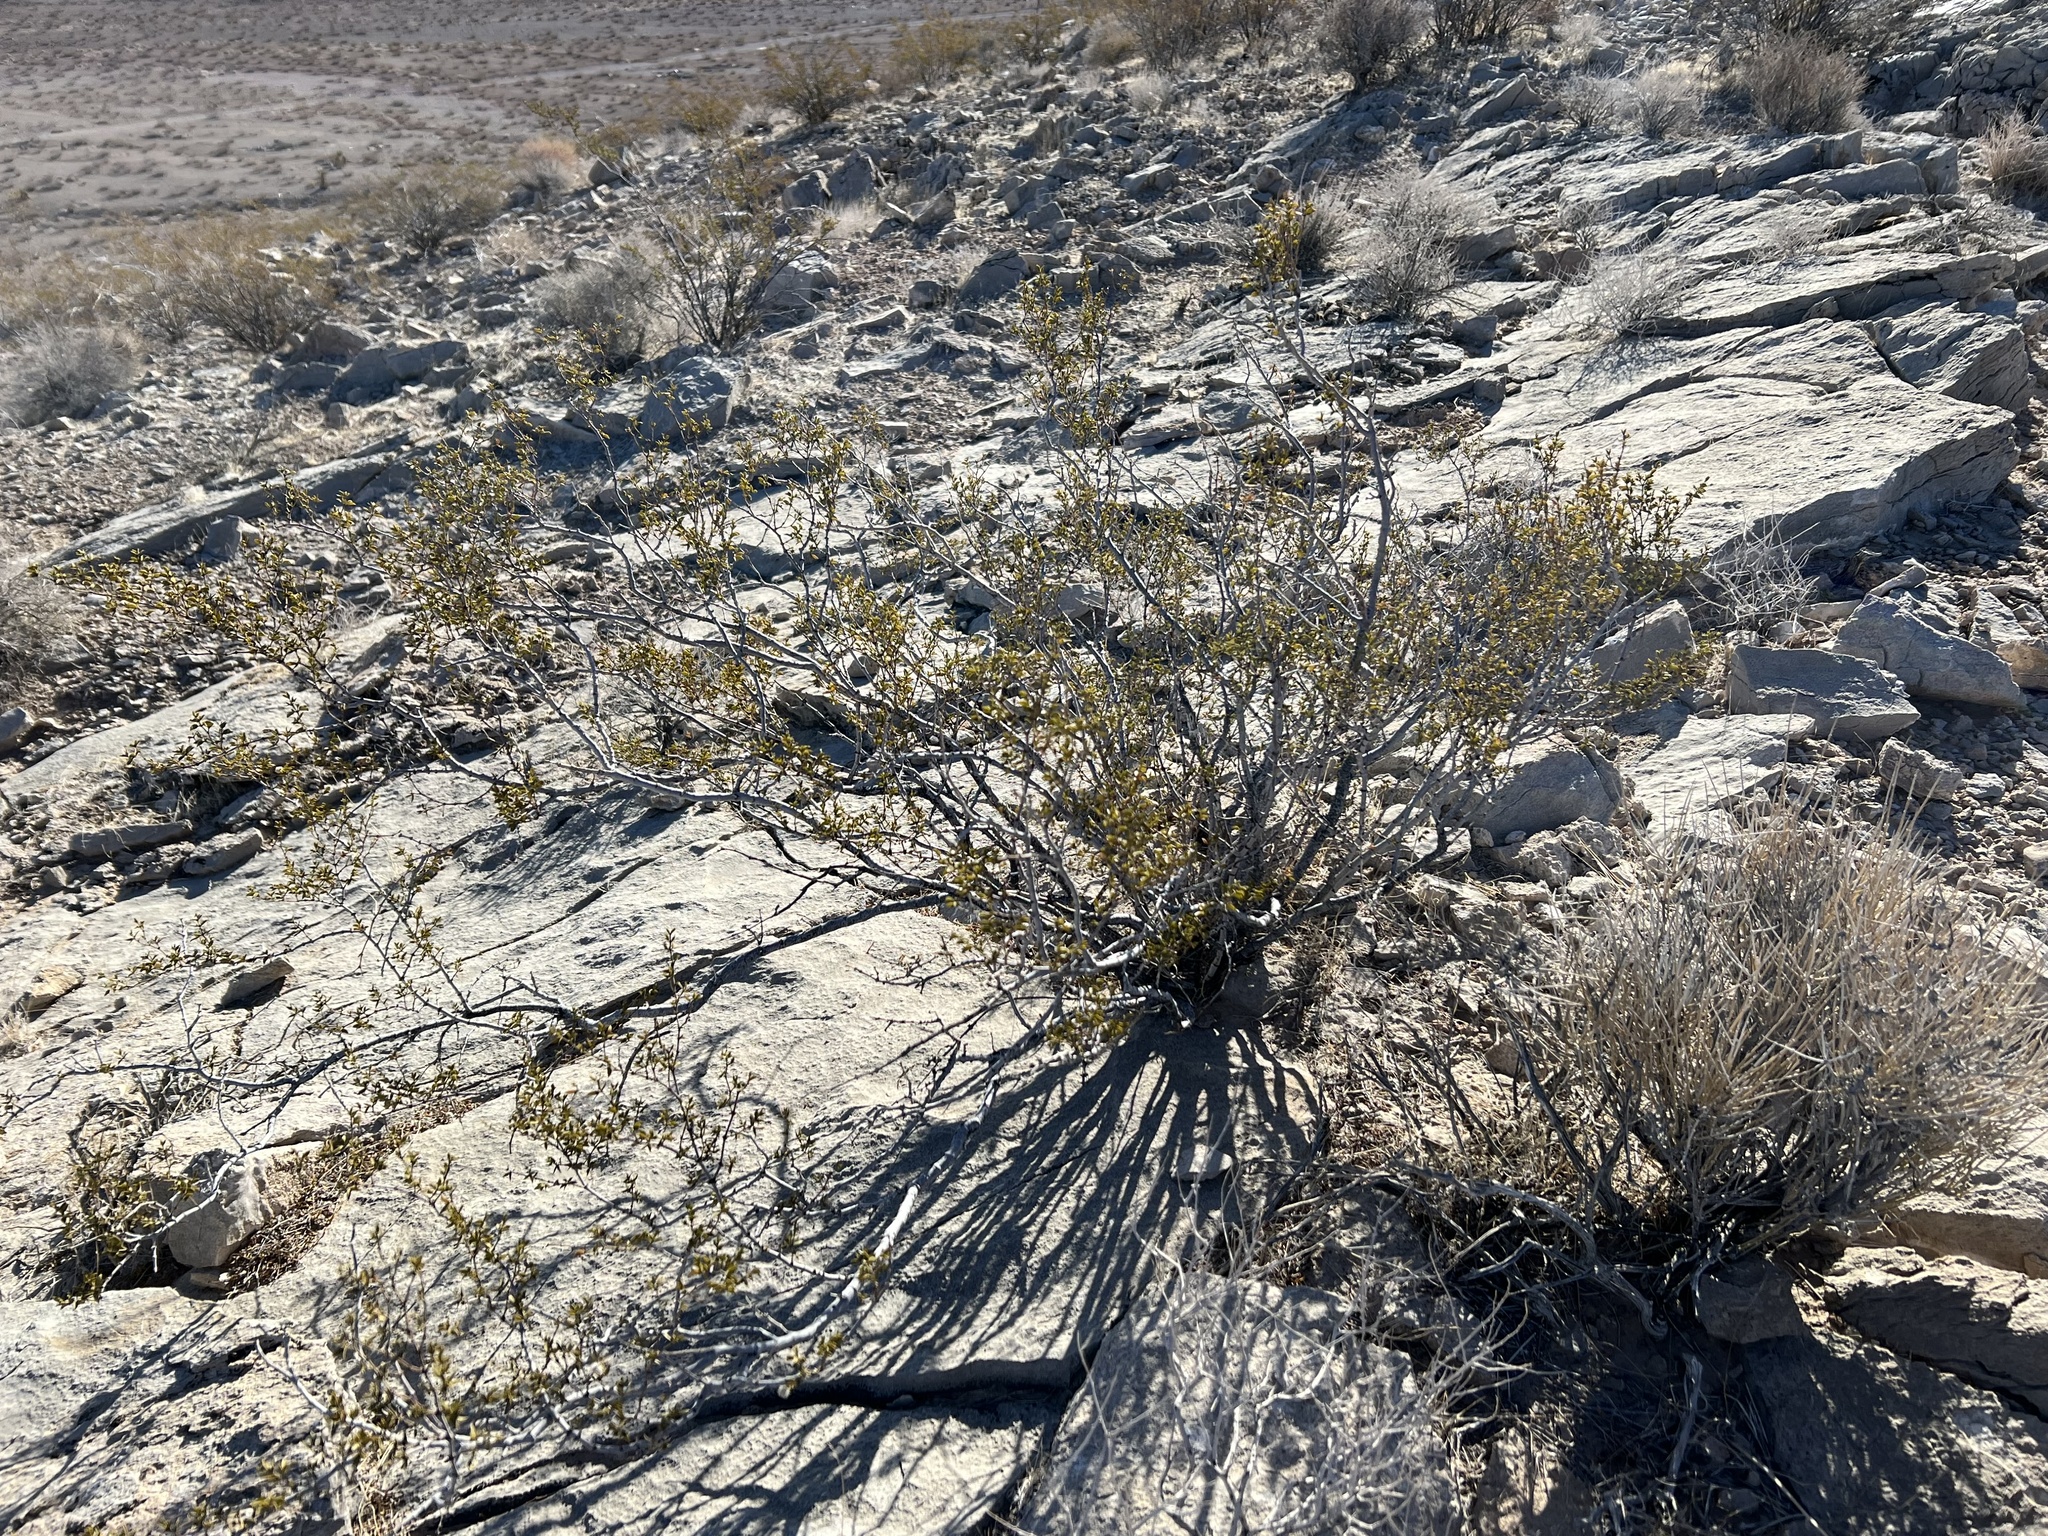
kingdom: Plantae
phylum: Tracheophyta
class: Magnoliopsida
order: Zygophyllales
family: Zygophyllaceae
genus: Larrea
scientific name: Larrea tridentata
